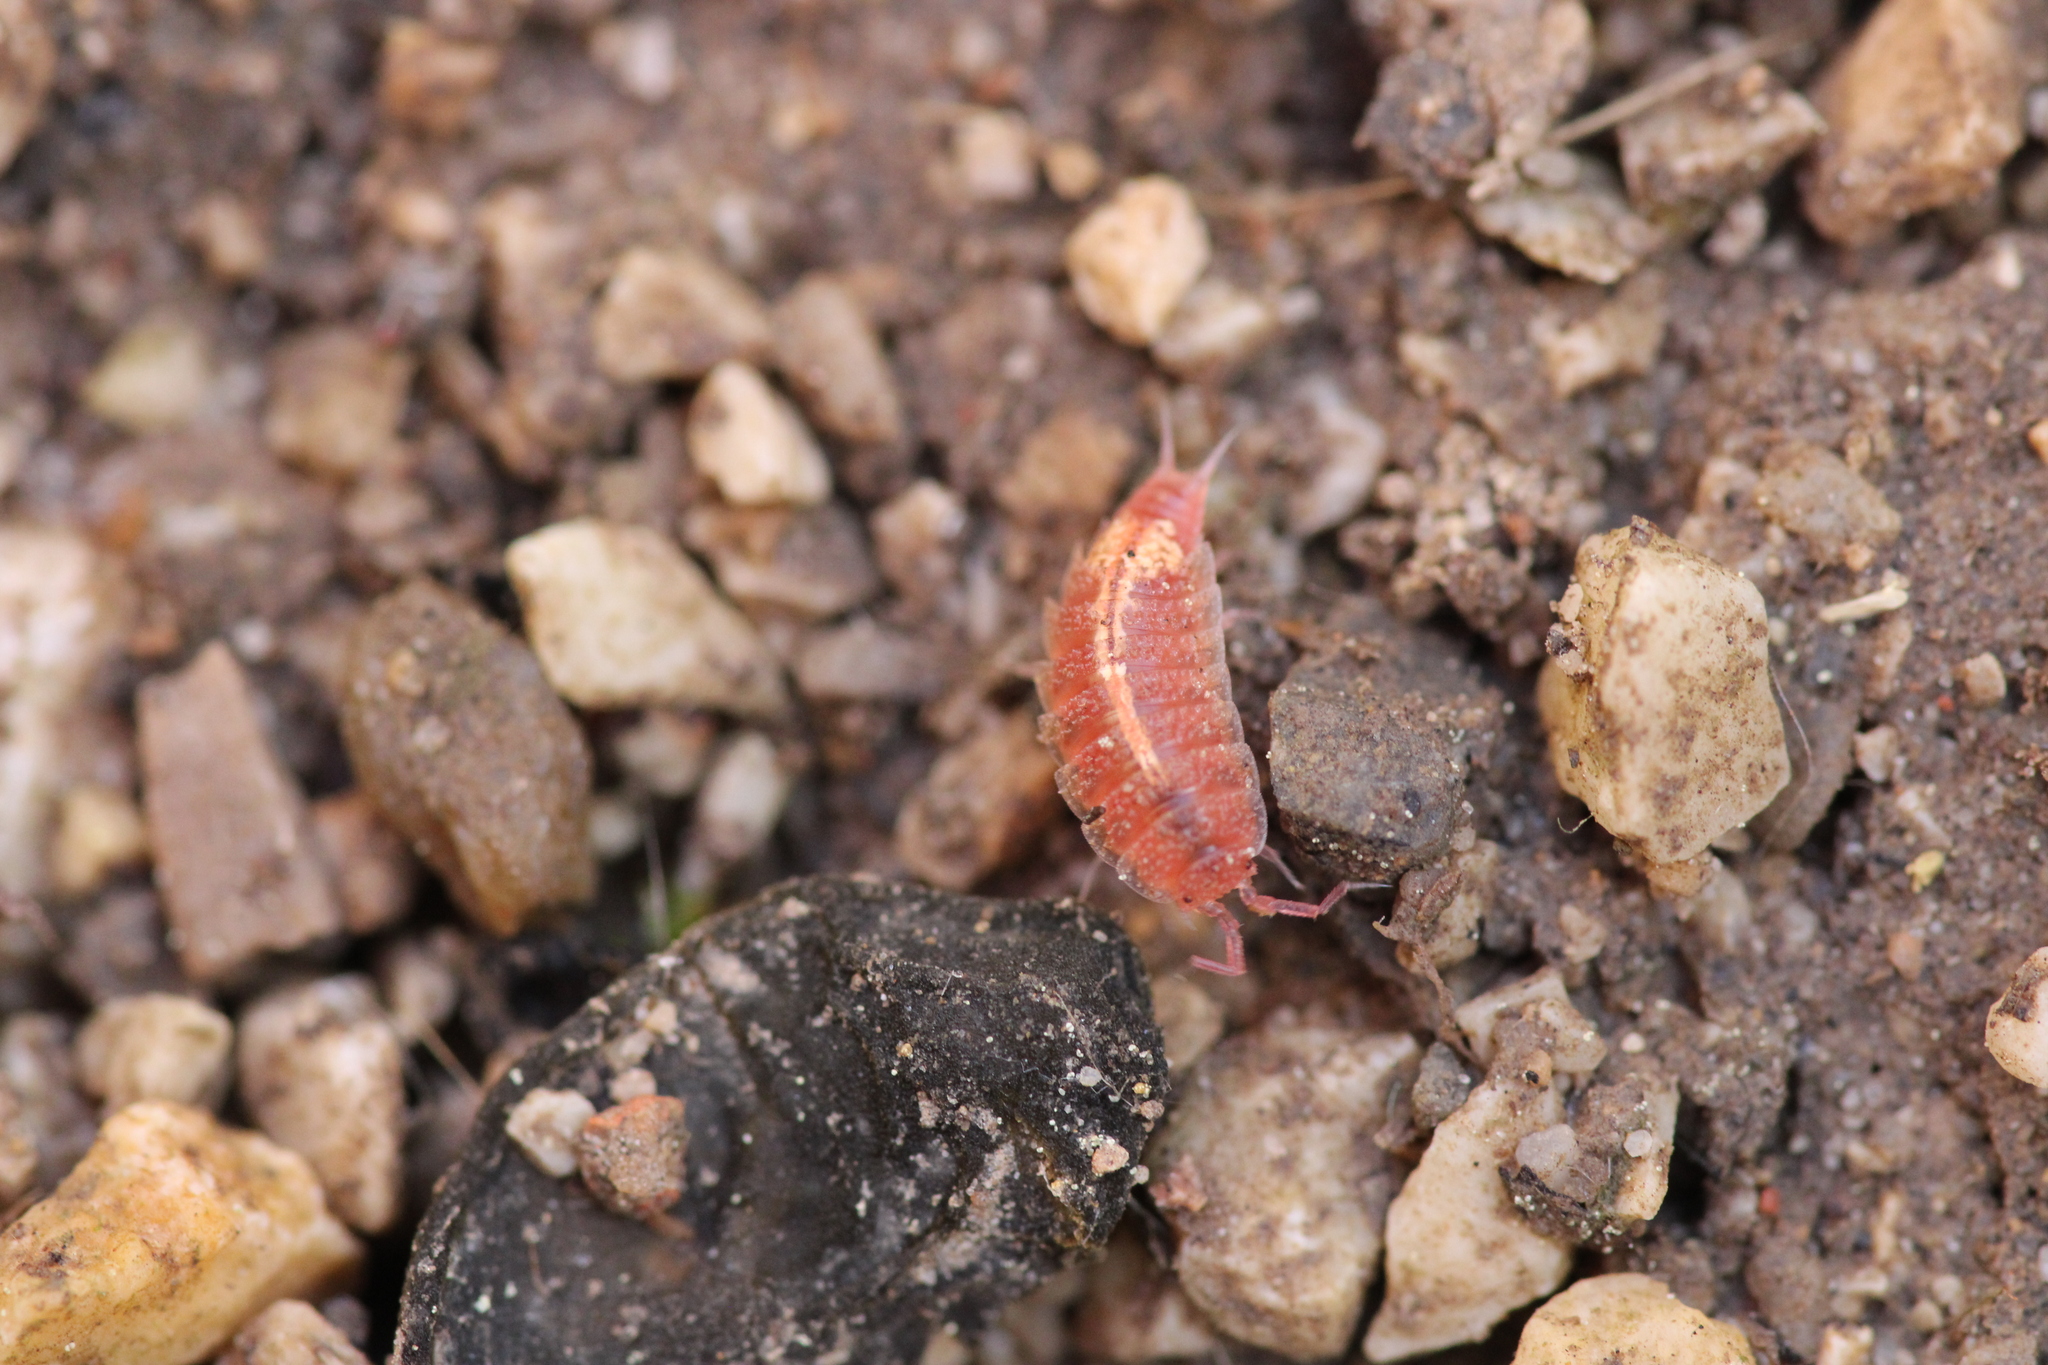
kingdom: Animalia
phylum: Arthropoda
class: Malacostraca
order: Isopoda
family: Trichoniscidae
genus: Androniscus
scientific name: Androniscus dentiger
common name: Rosy woodlouse
